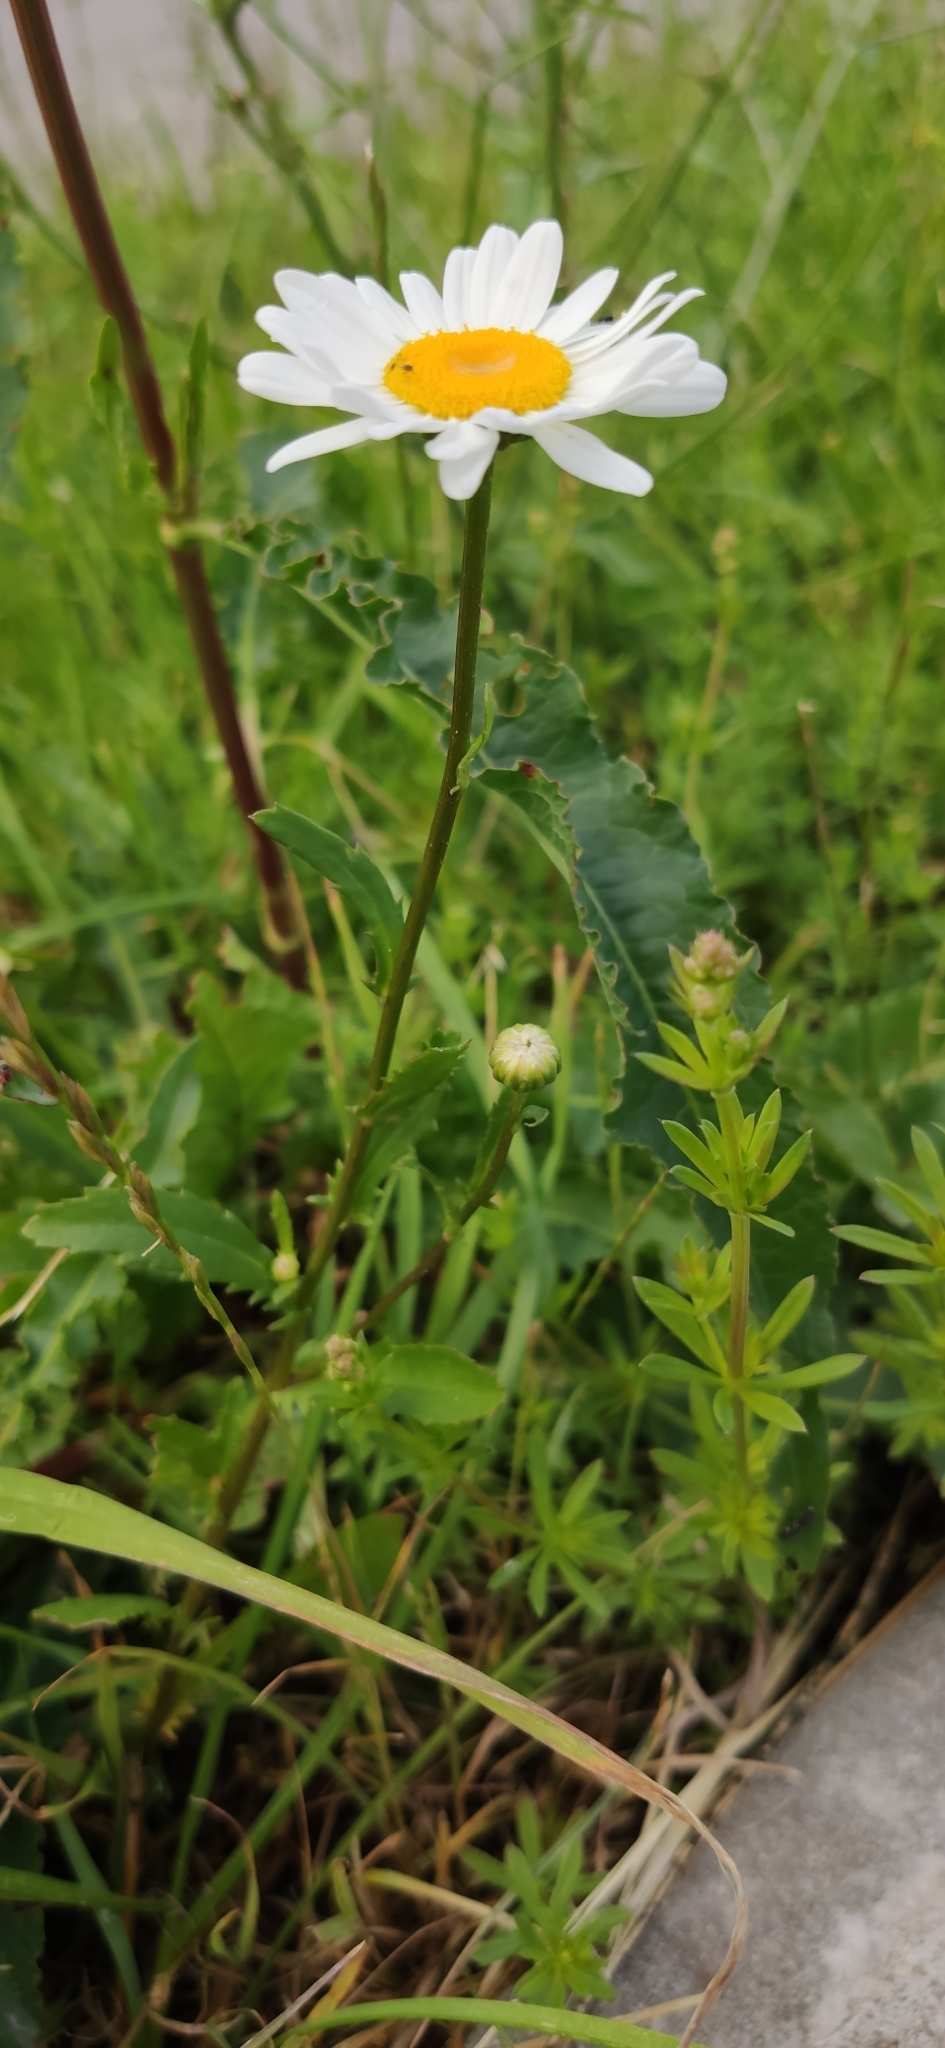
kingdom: Plantae
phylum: Tracheophyta
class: Magnoliopsida
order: Asterales
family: Asteraceae
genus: Leucanthemum
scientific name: Leucanthemum vulgare
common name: Oxeye daisy
